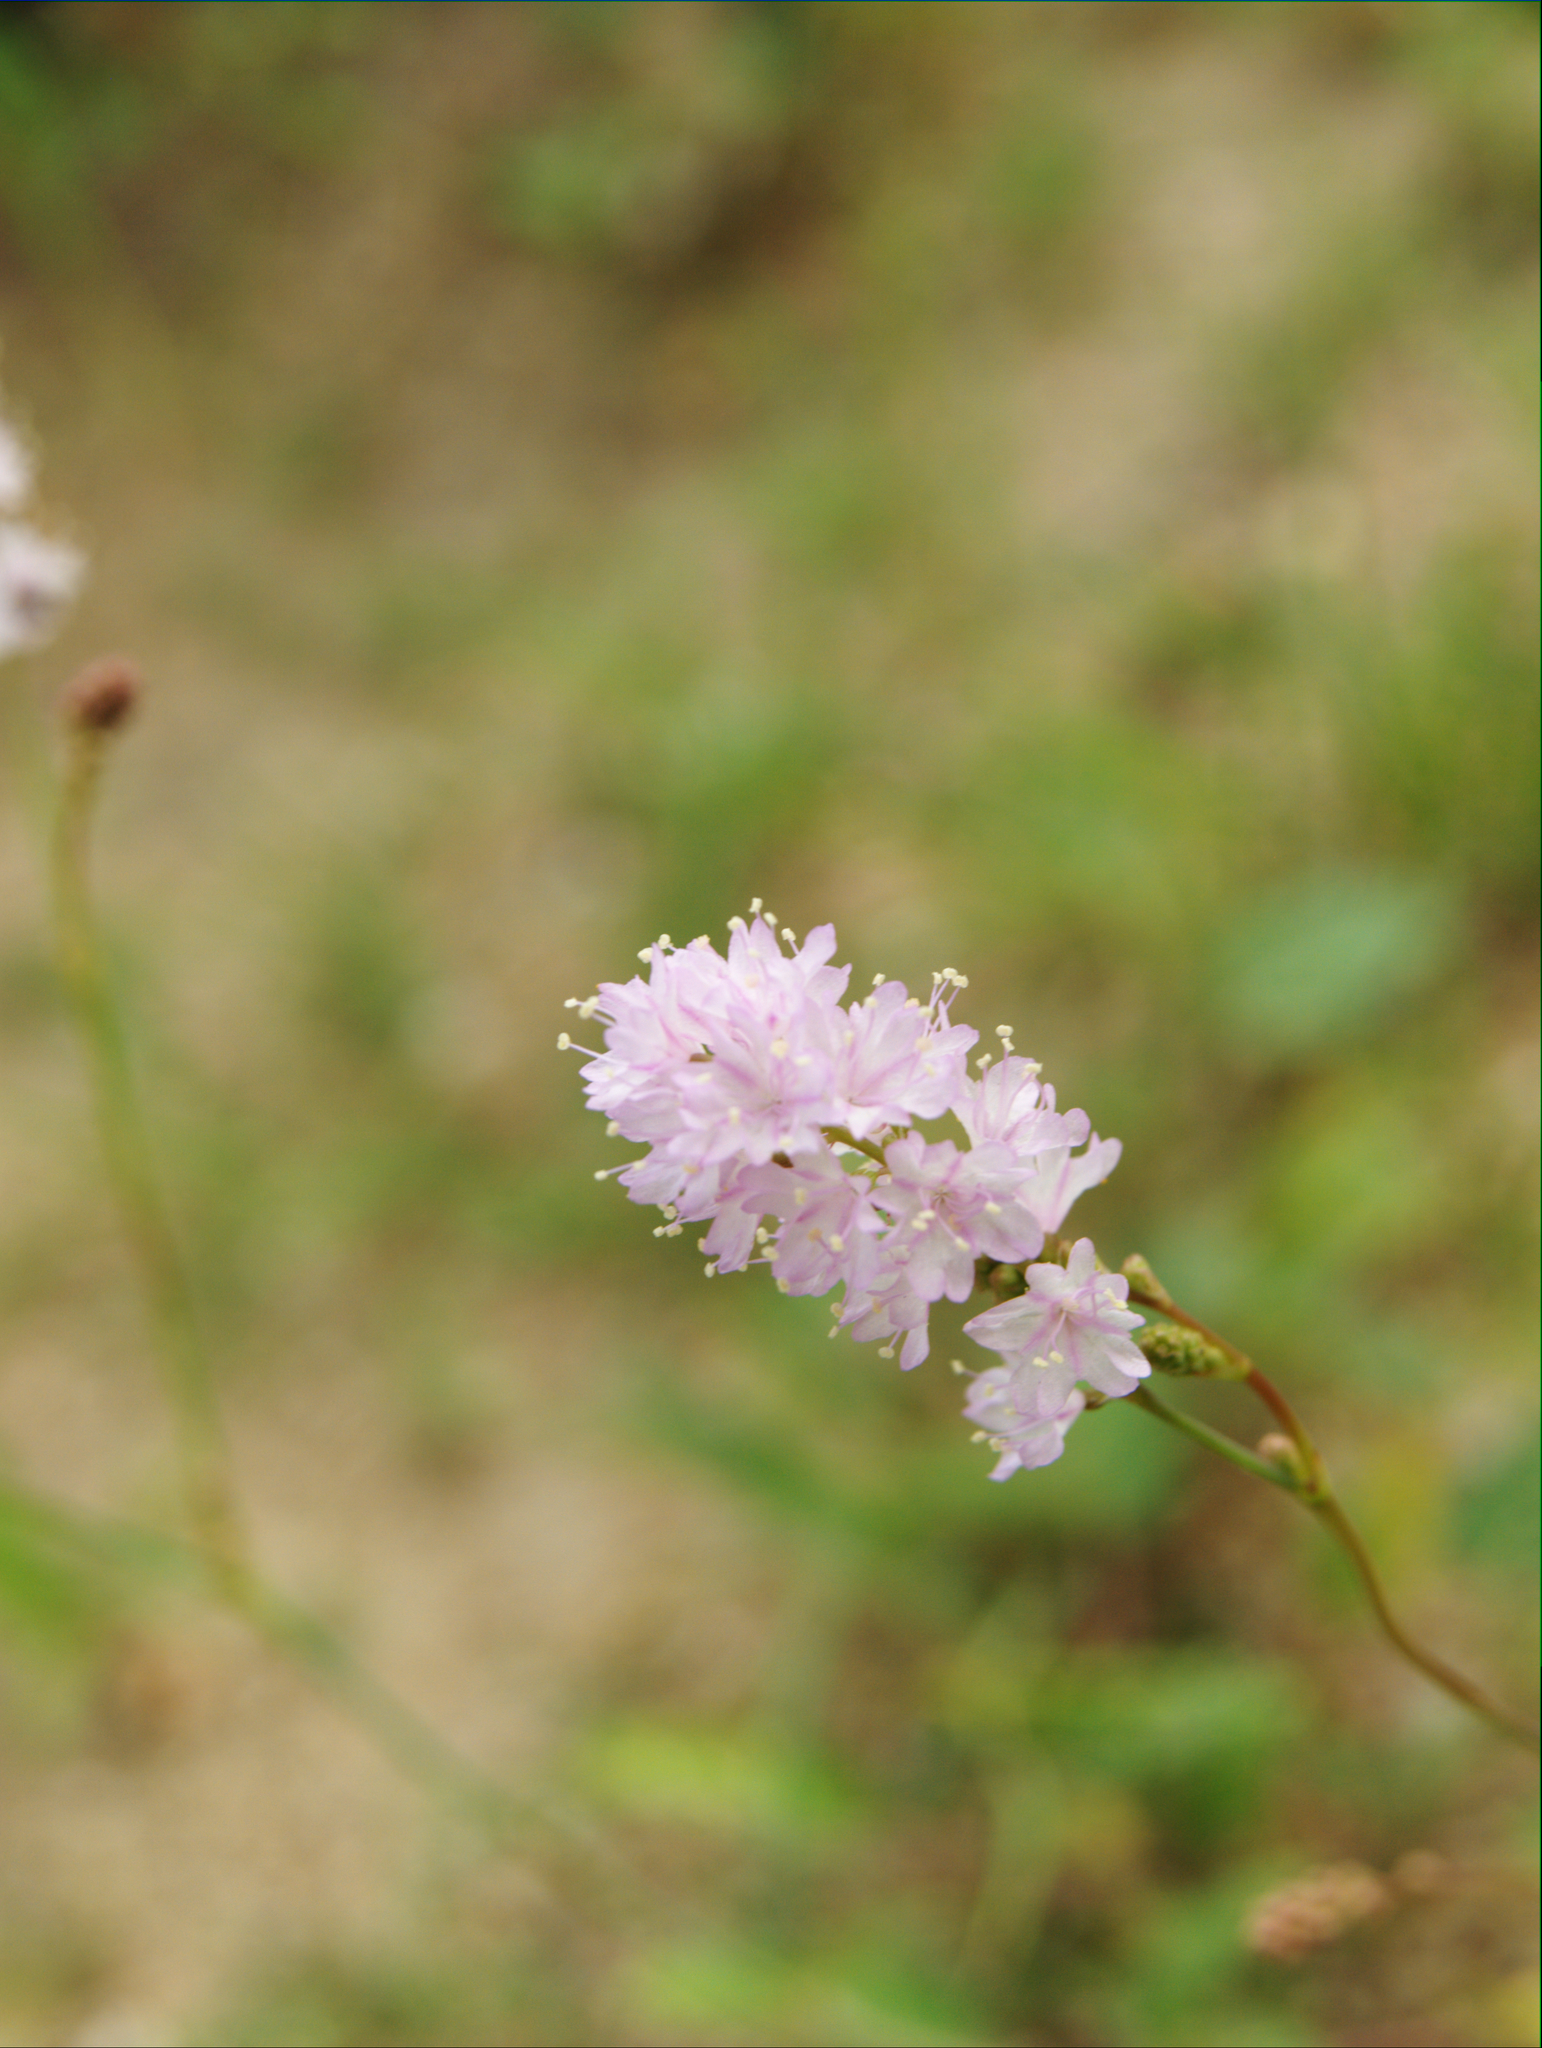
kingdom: Plantae
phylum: Tracheophyta
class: Magnoliopsida
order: Caryophyllales
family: Nyctaginaceae
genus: Boerhavia
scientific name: Boerhavia xantii
